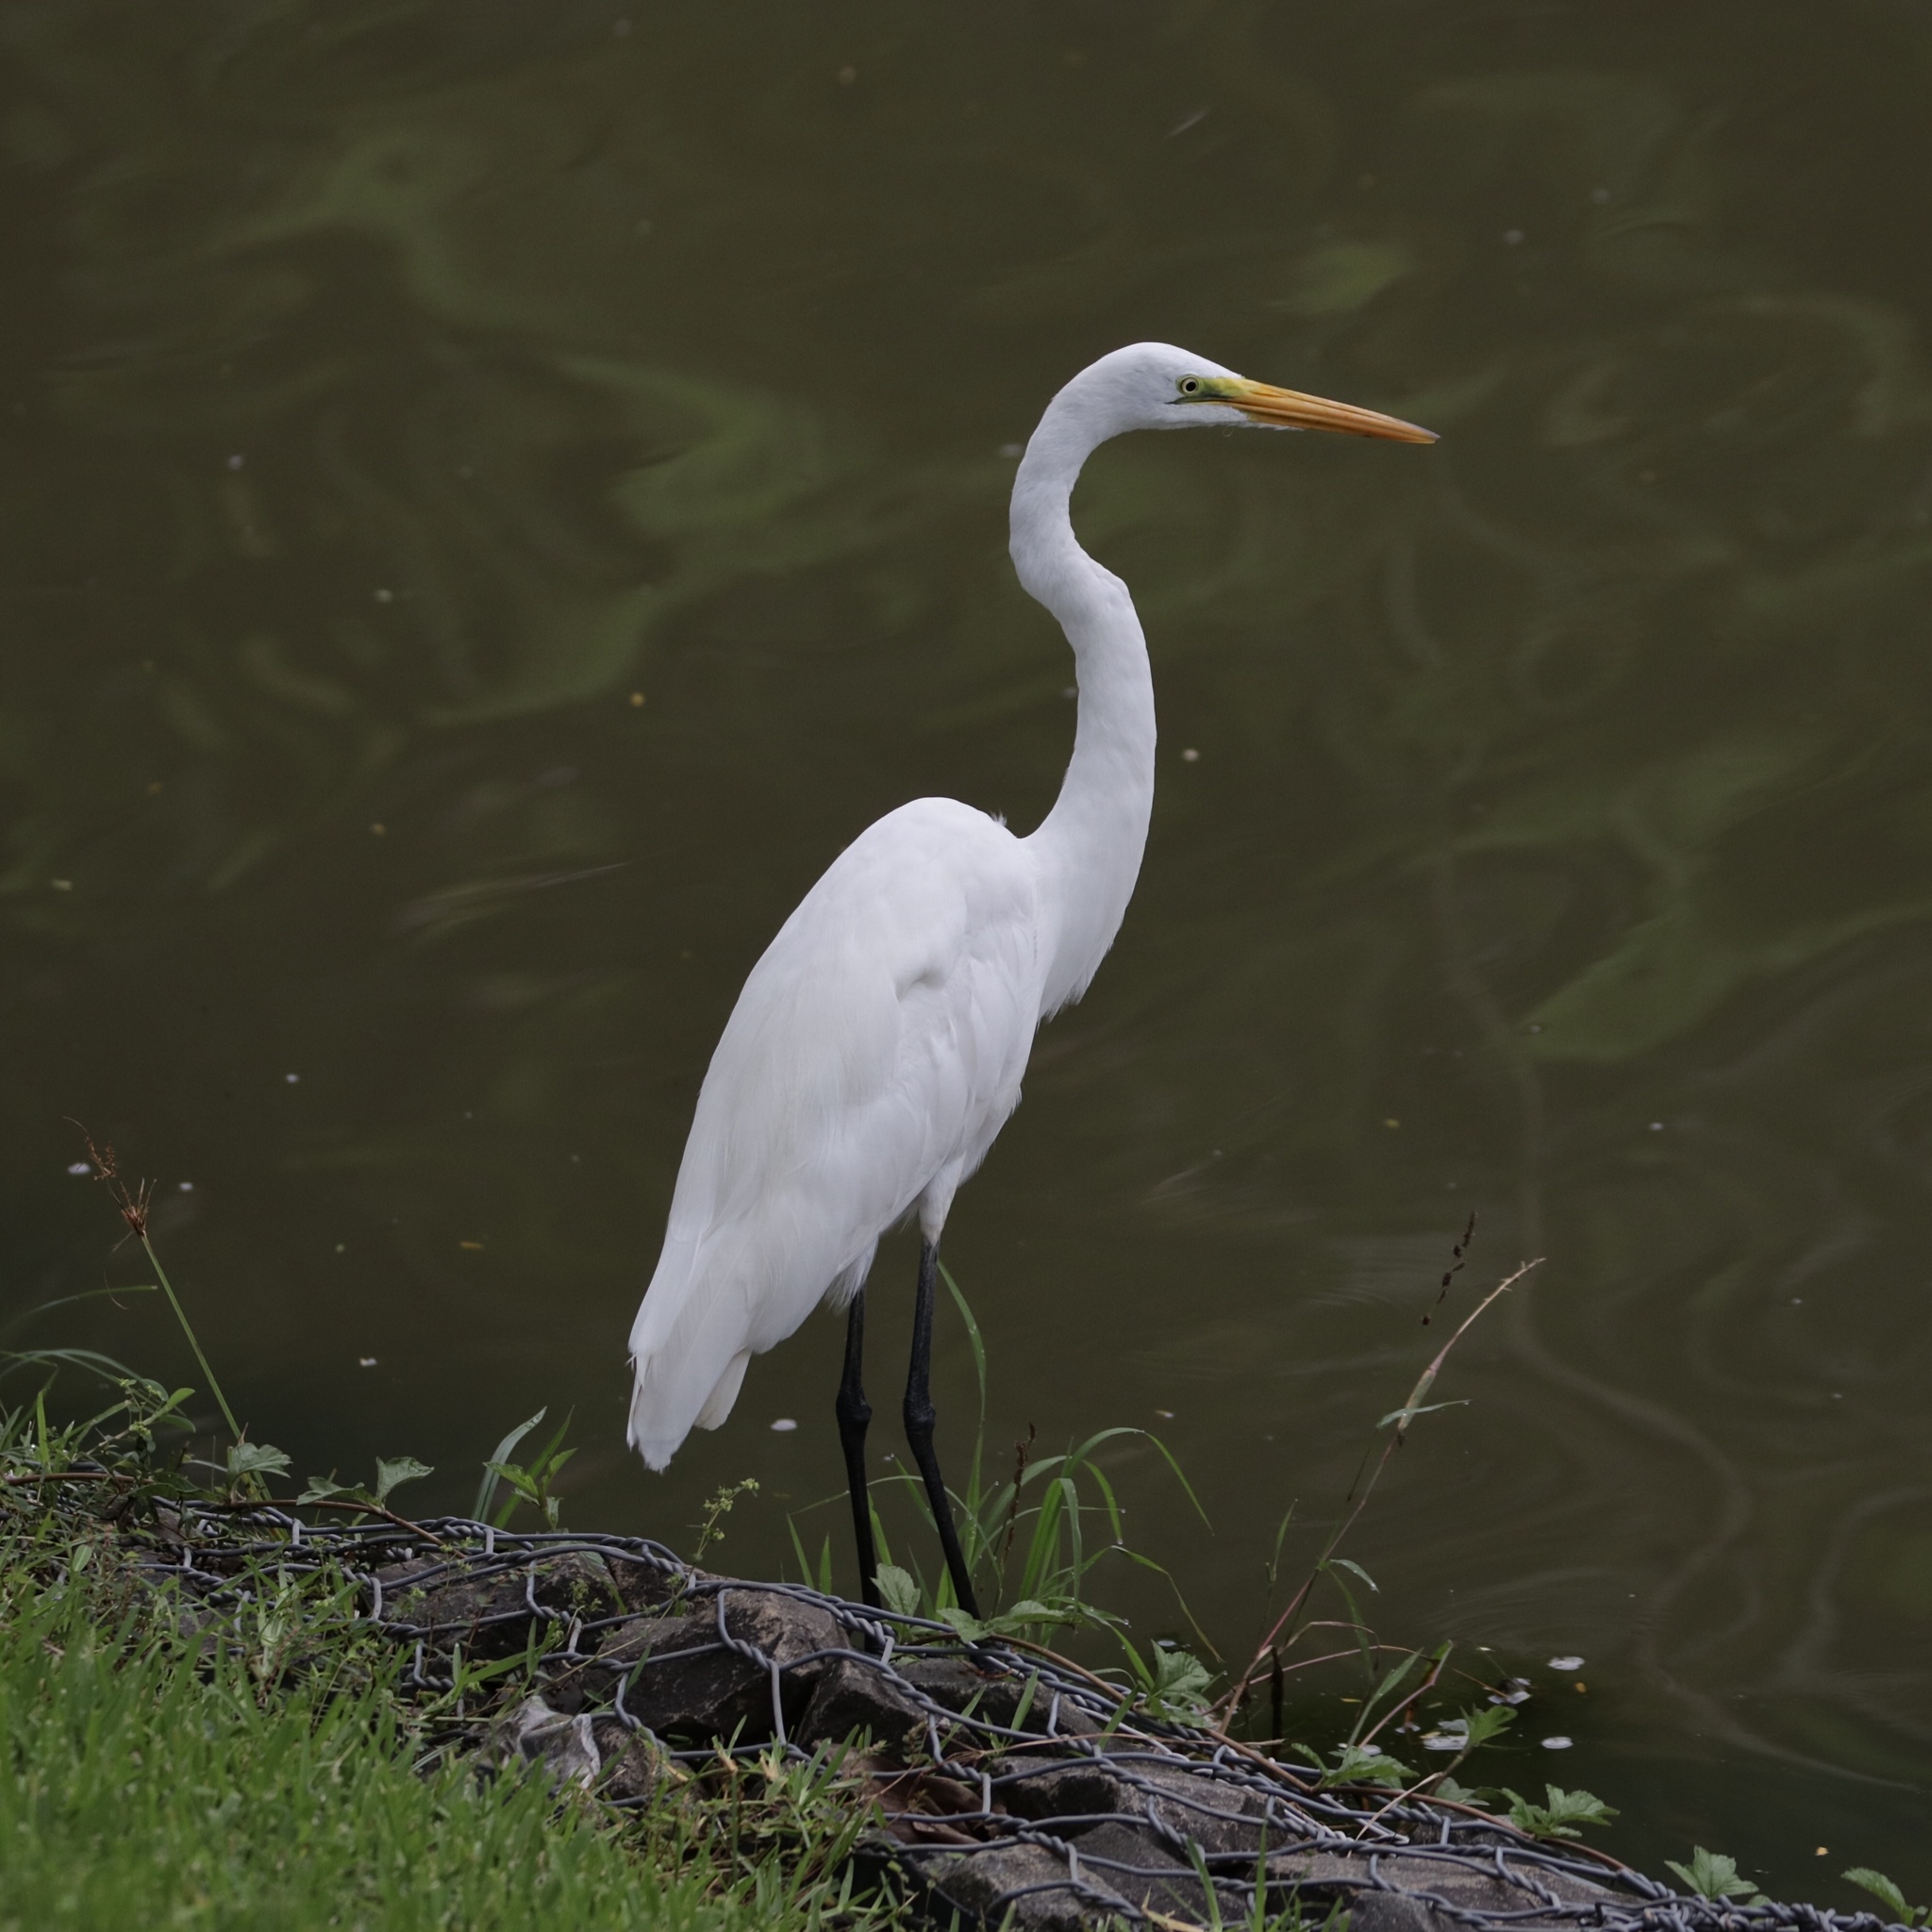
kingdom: Animalia
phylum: Chordata
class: Aves
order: Pelecaniformes
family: Ardeidae
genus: Ardea
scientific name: Ardea alba
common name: Great egret
